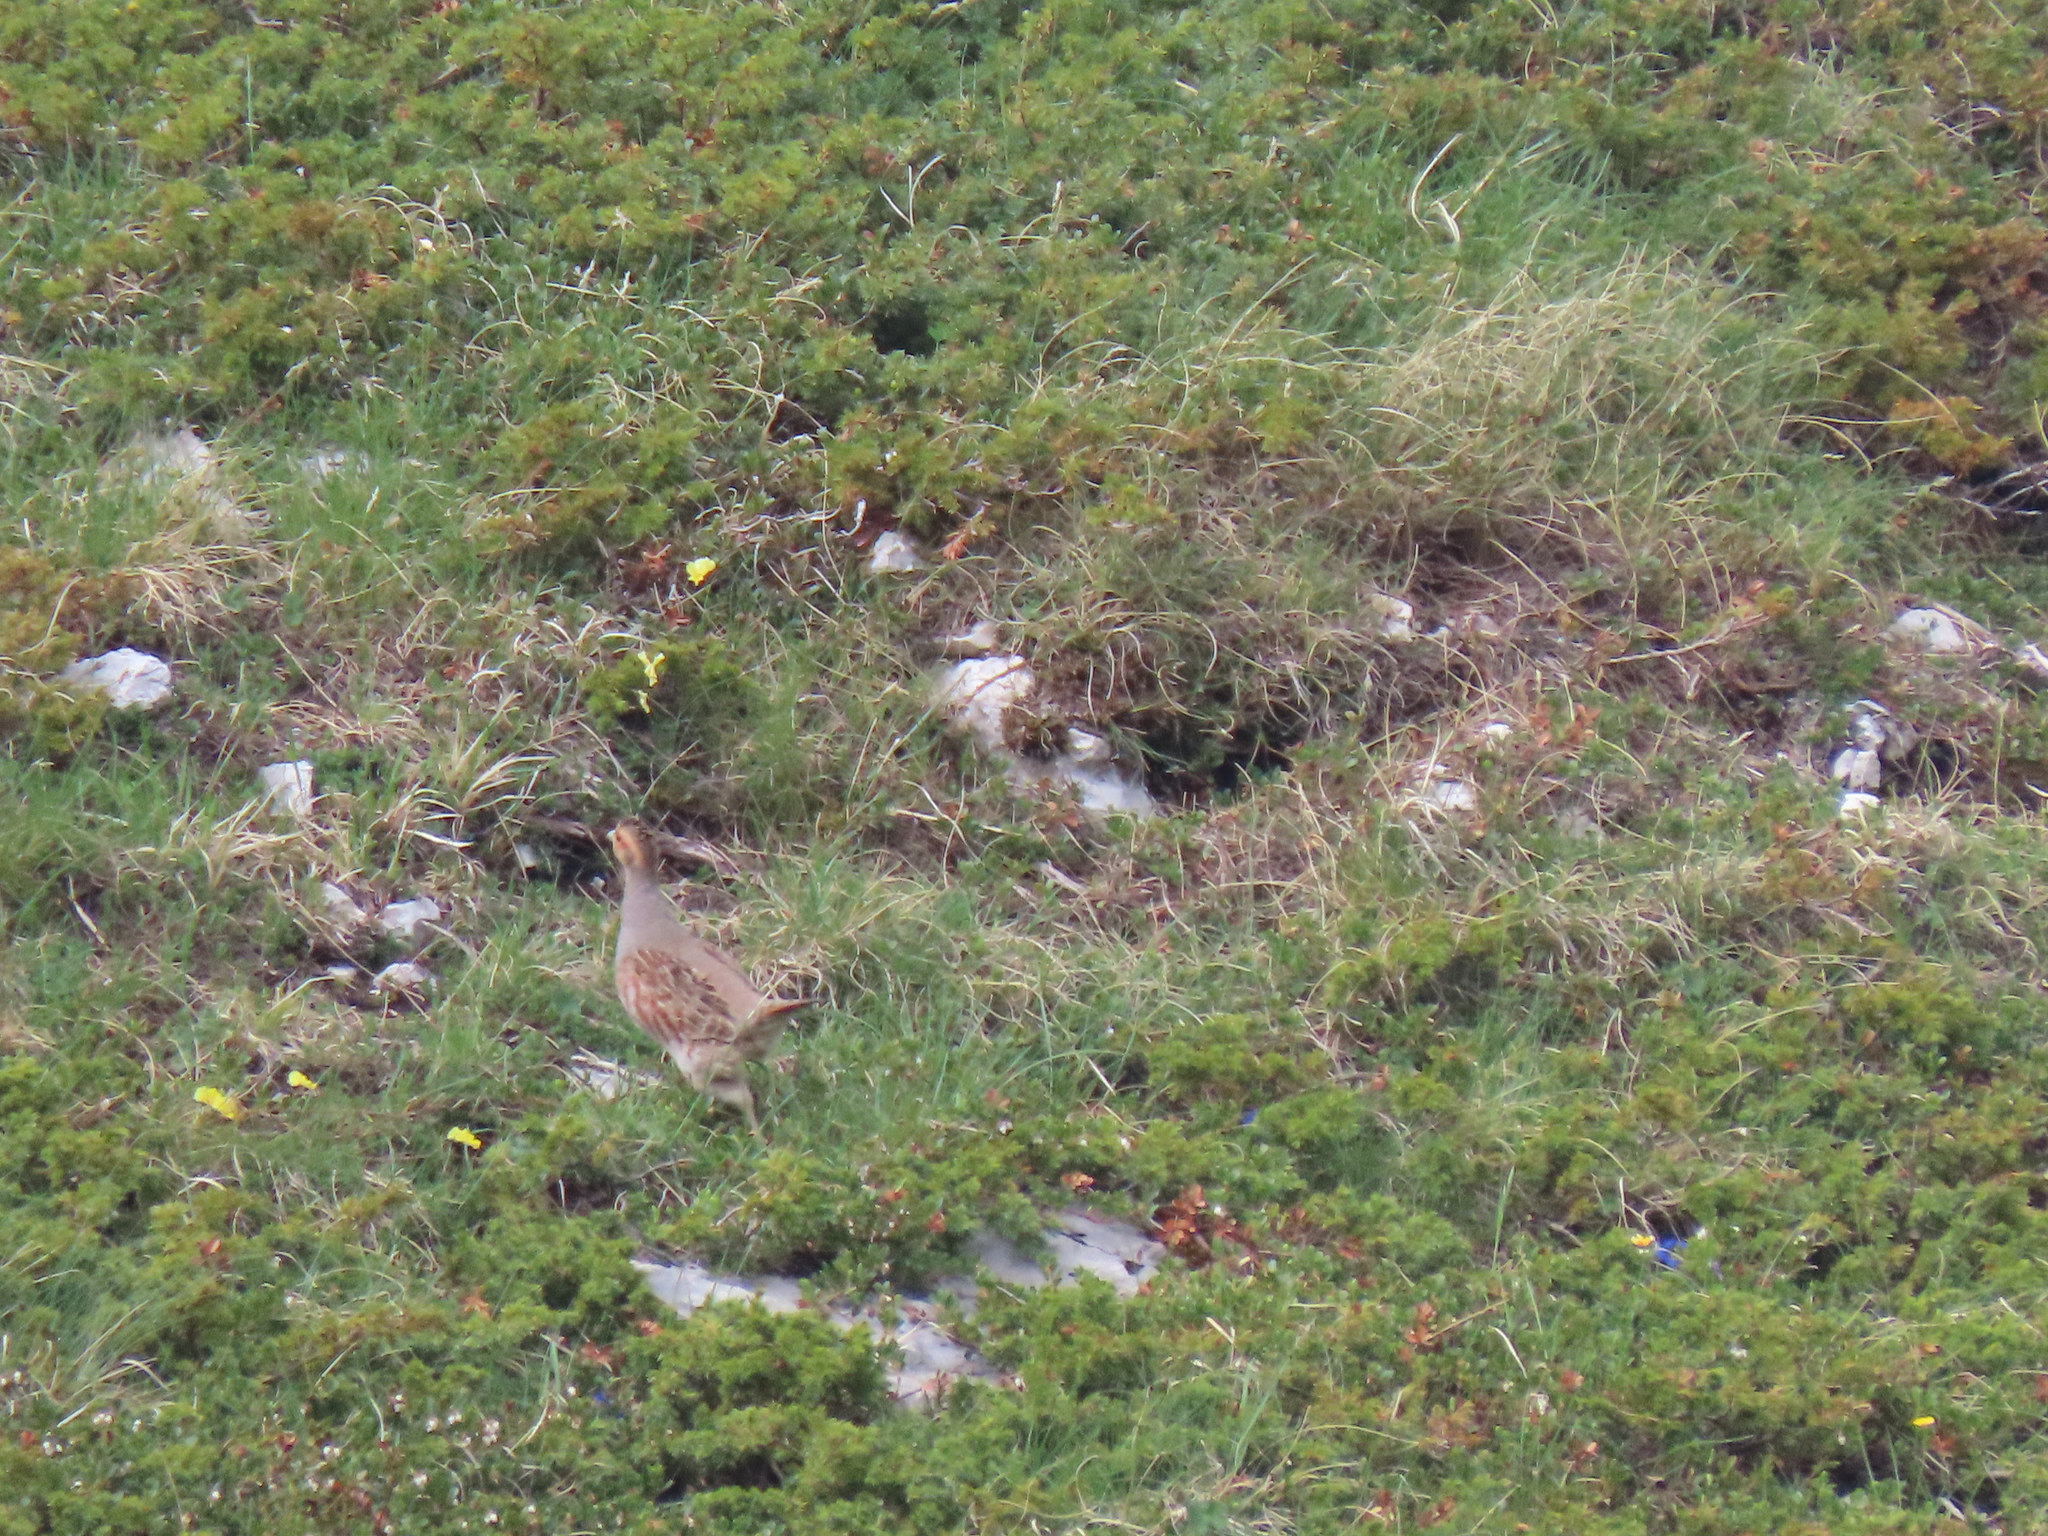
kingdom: Animalia
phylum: Chordata
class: Aves
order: Galliformes
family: Phasianidae
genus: Perdix
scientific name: Perdix perdix
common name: Grey partridge
